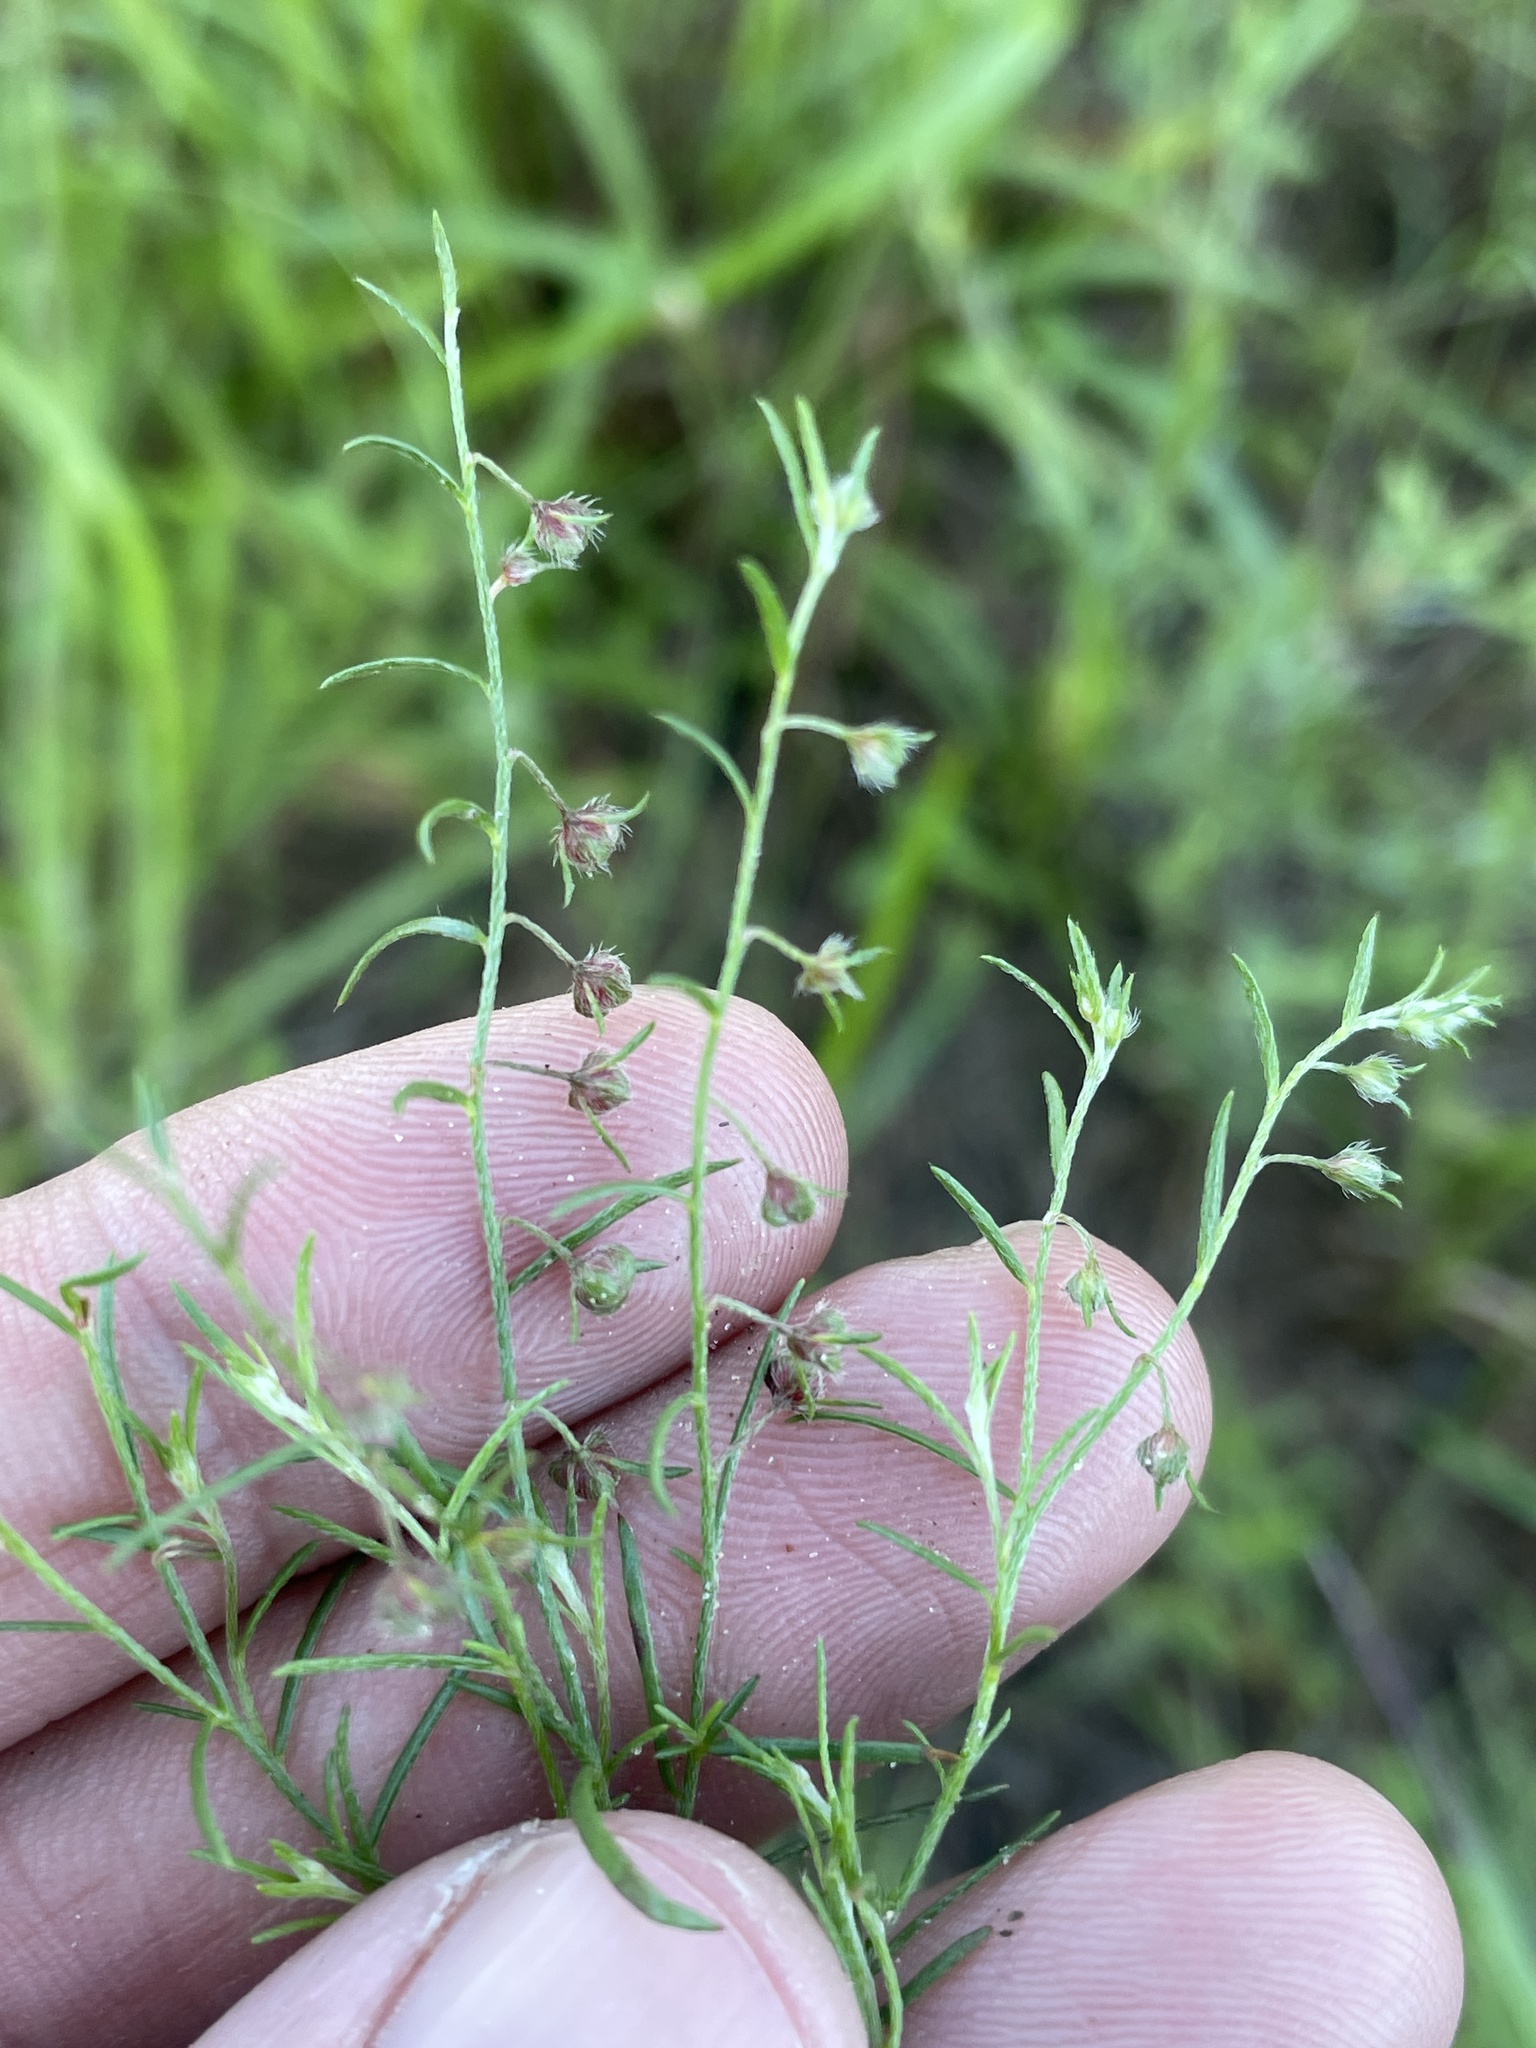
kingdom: Plantae
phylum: Tracheophyta
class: Magnoliopsida
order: Malvales
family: Cistaceae
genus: Lechea
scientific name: Lechea san-sabeana
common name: San saba pinweed
